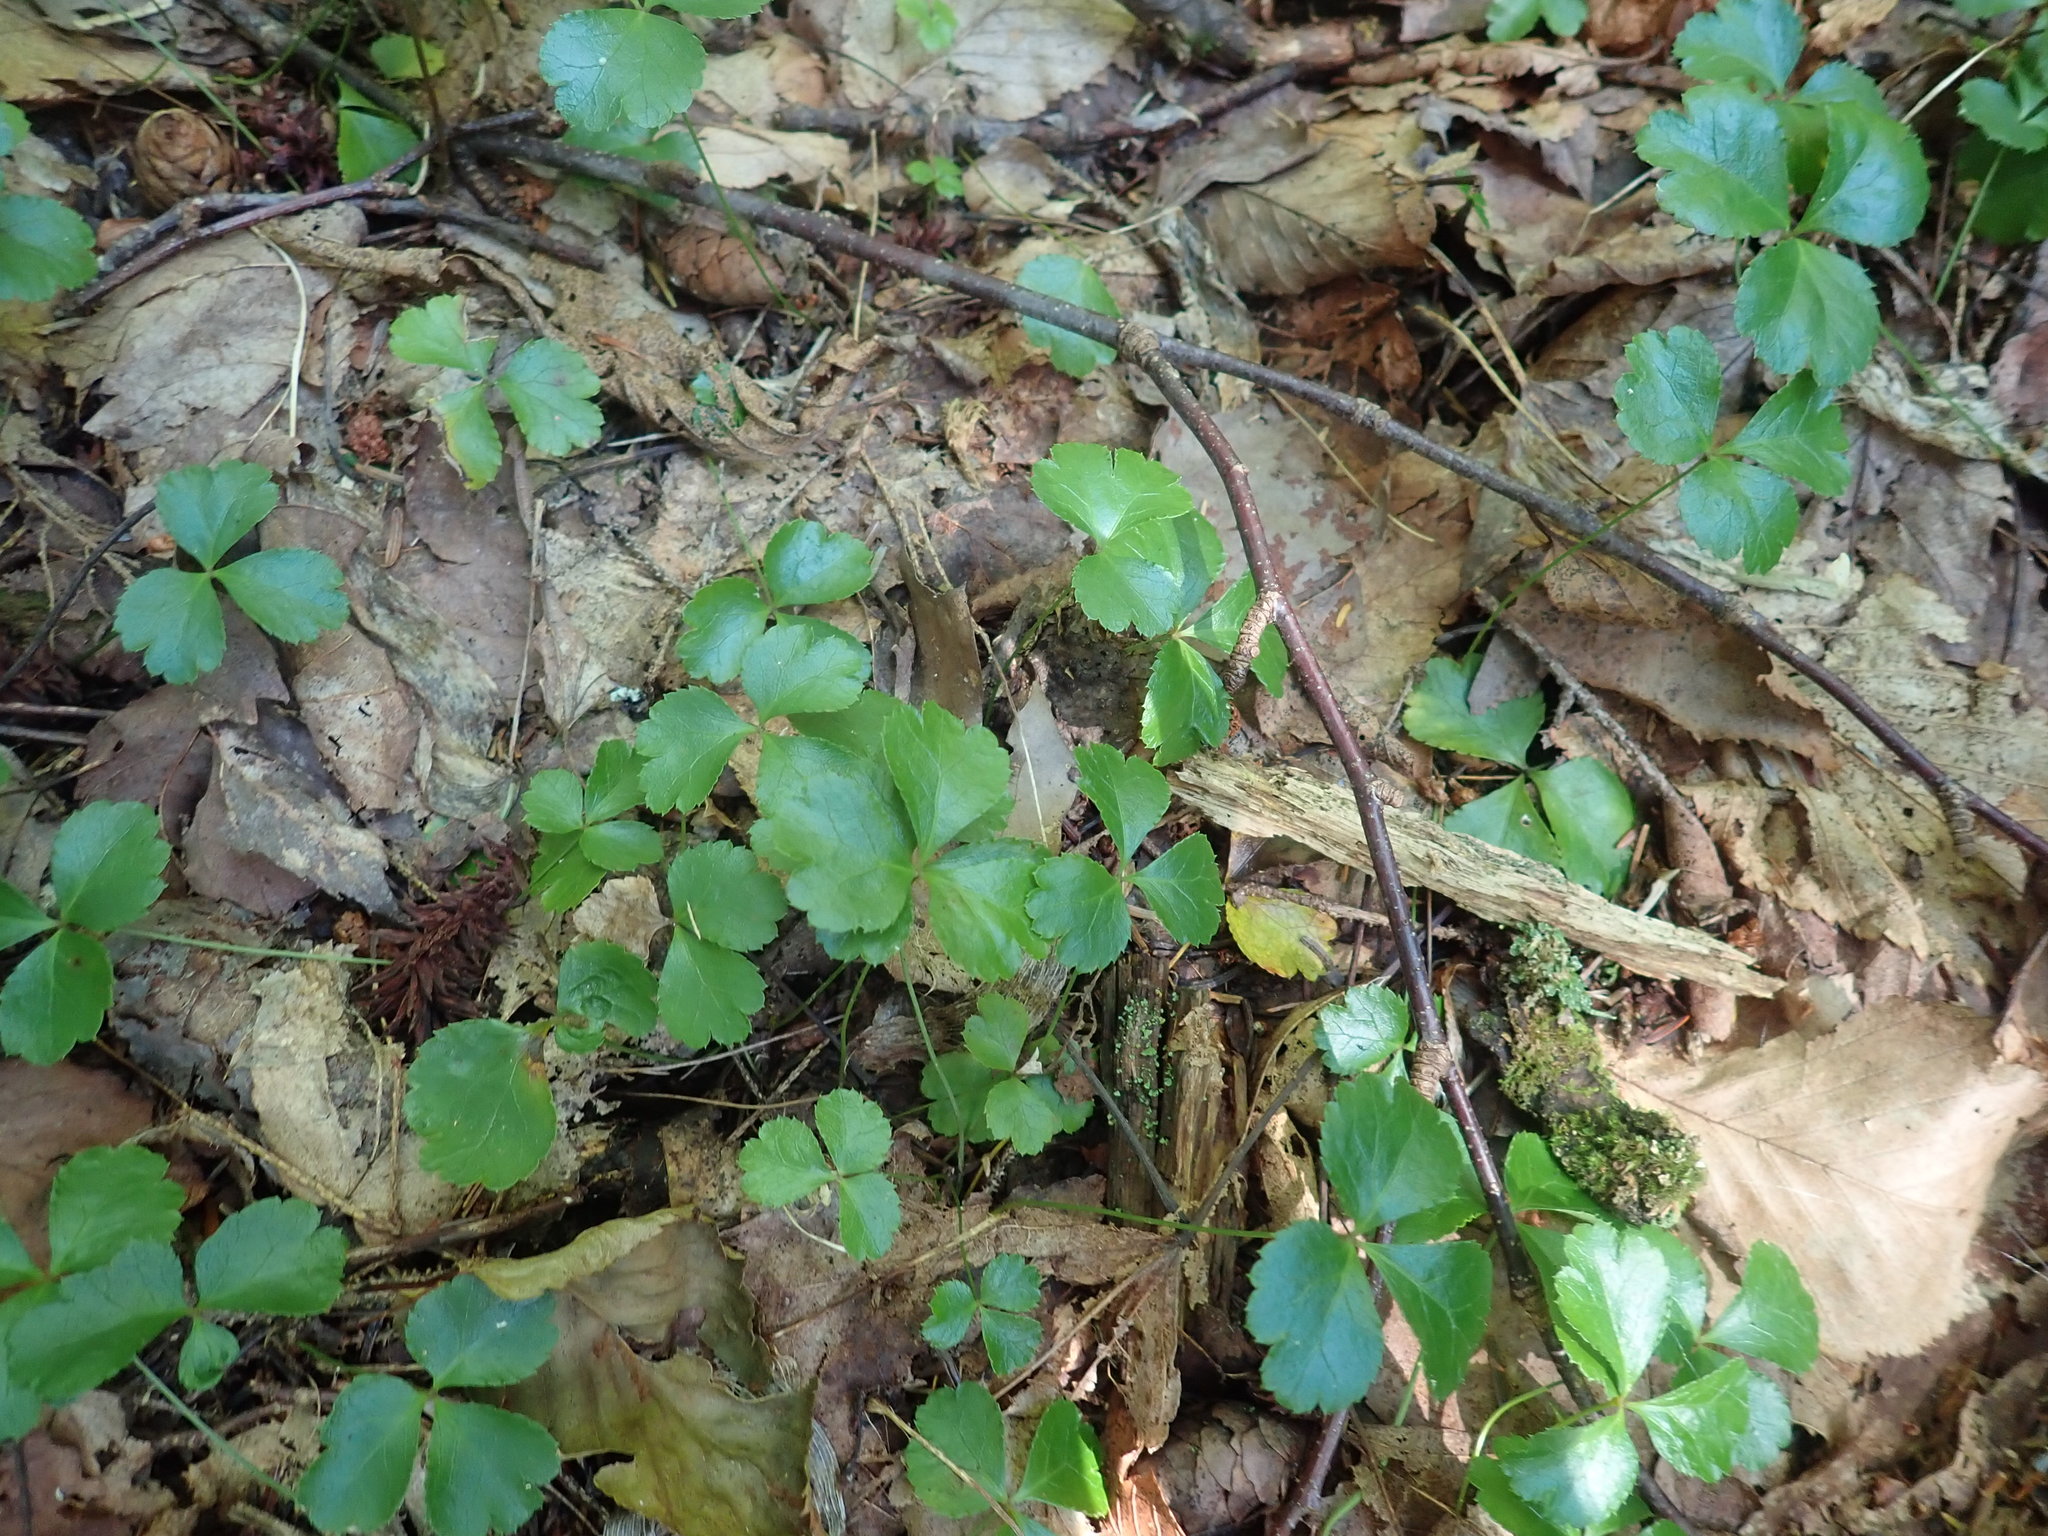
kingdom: Plantae
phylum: Tracheophyta
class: Magnoliopsida
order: Ranunculales
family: Ranunculaceae
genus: Coptis
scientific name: Coptis trifolia
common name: Canker-root
